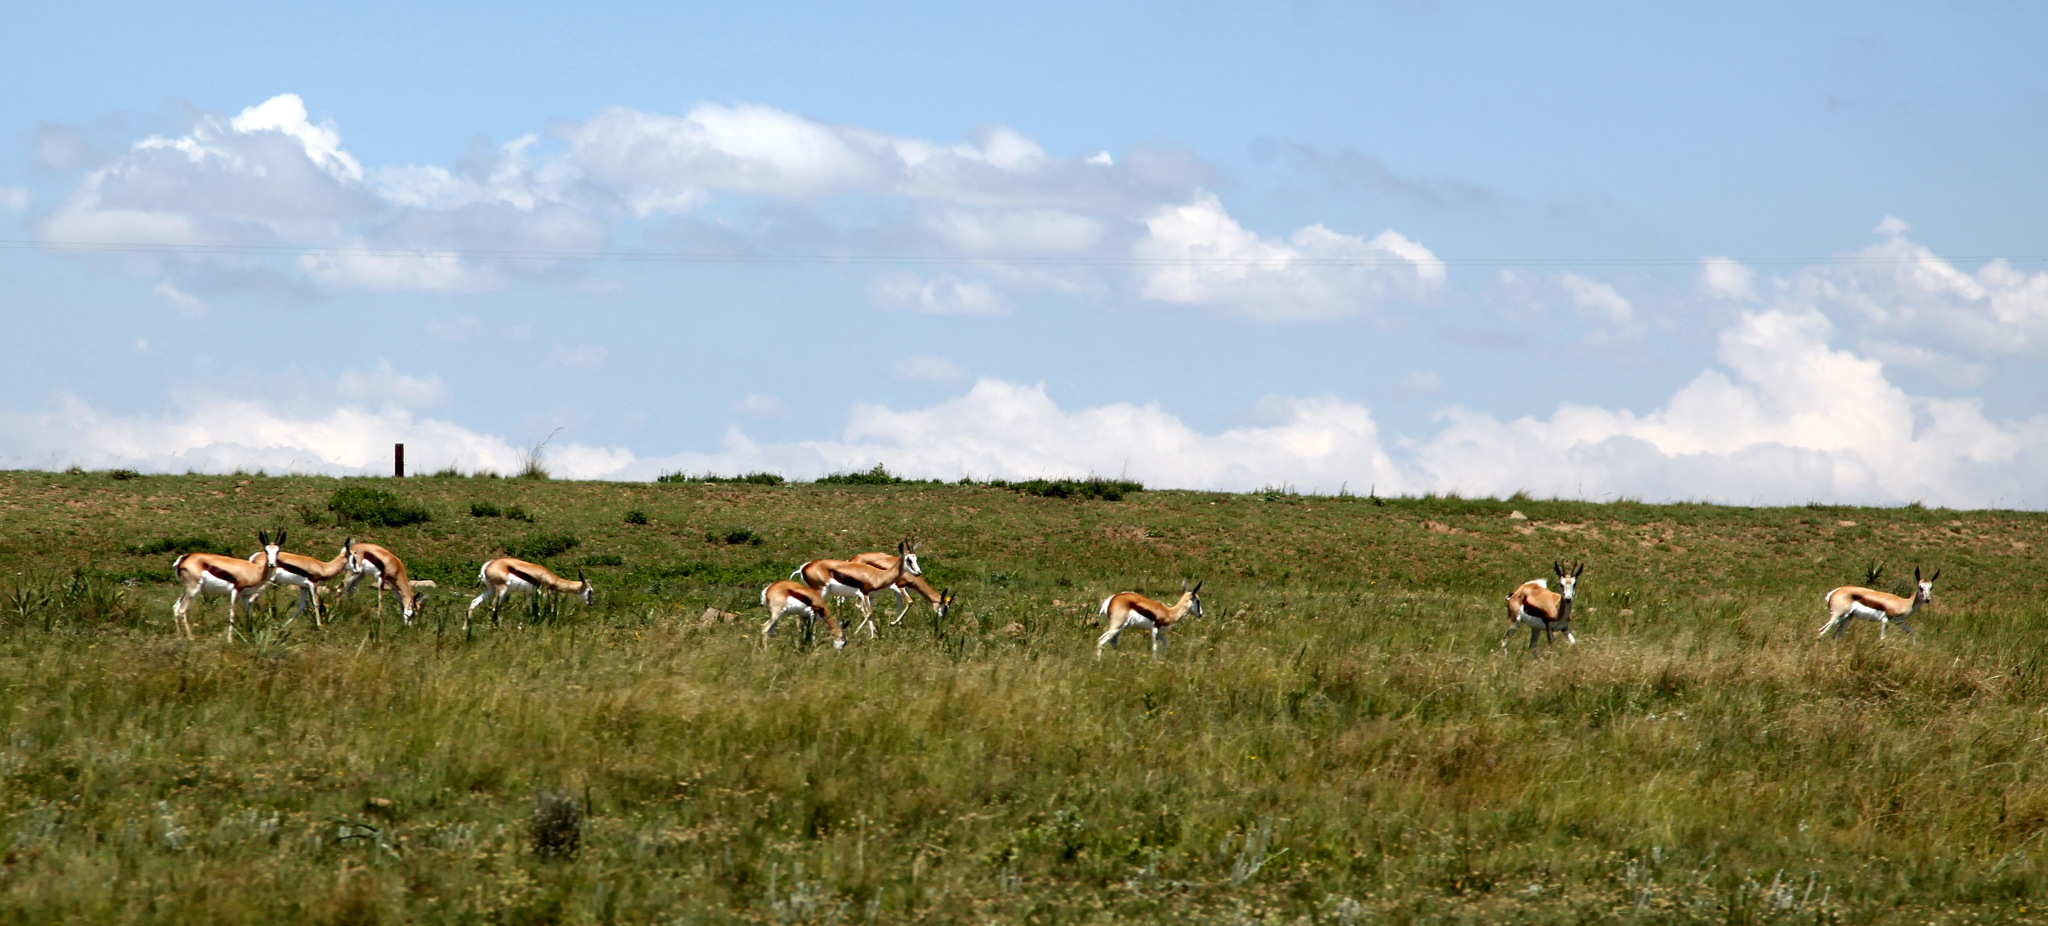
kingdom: Animalia
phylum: Chordata
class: Mammalia
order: Artiodactyla
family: Bovidae
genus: Antidorcas
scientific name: Antidorcas marsupialis
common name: Springbok
